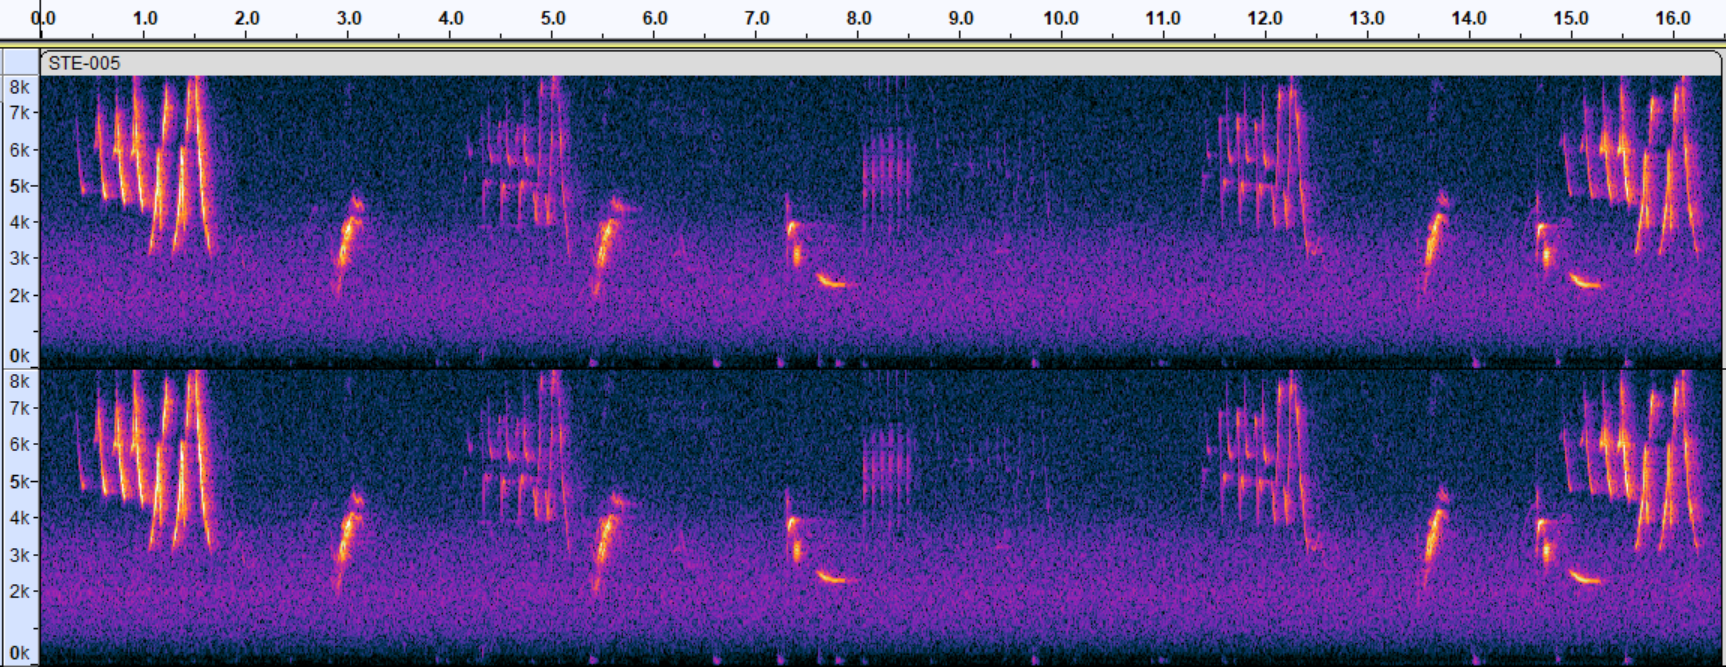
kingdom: Animalia
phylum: Chordata
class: Aves
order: Passeriformes
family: Parulidae
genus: Setophaga
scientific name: Setophaga pensylvanica
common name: Chestnut-sided warbler
